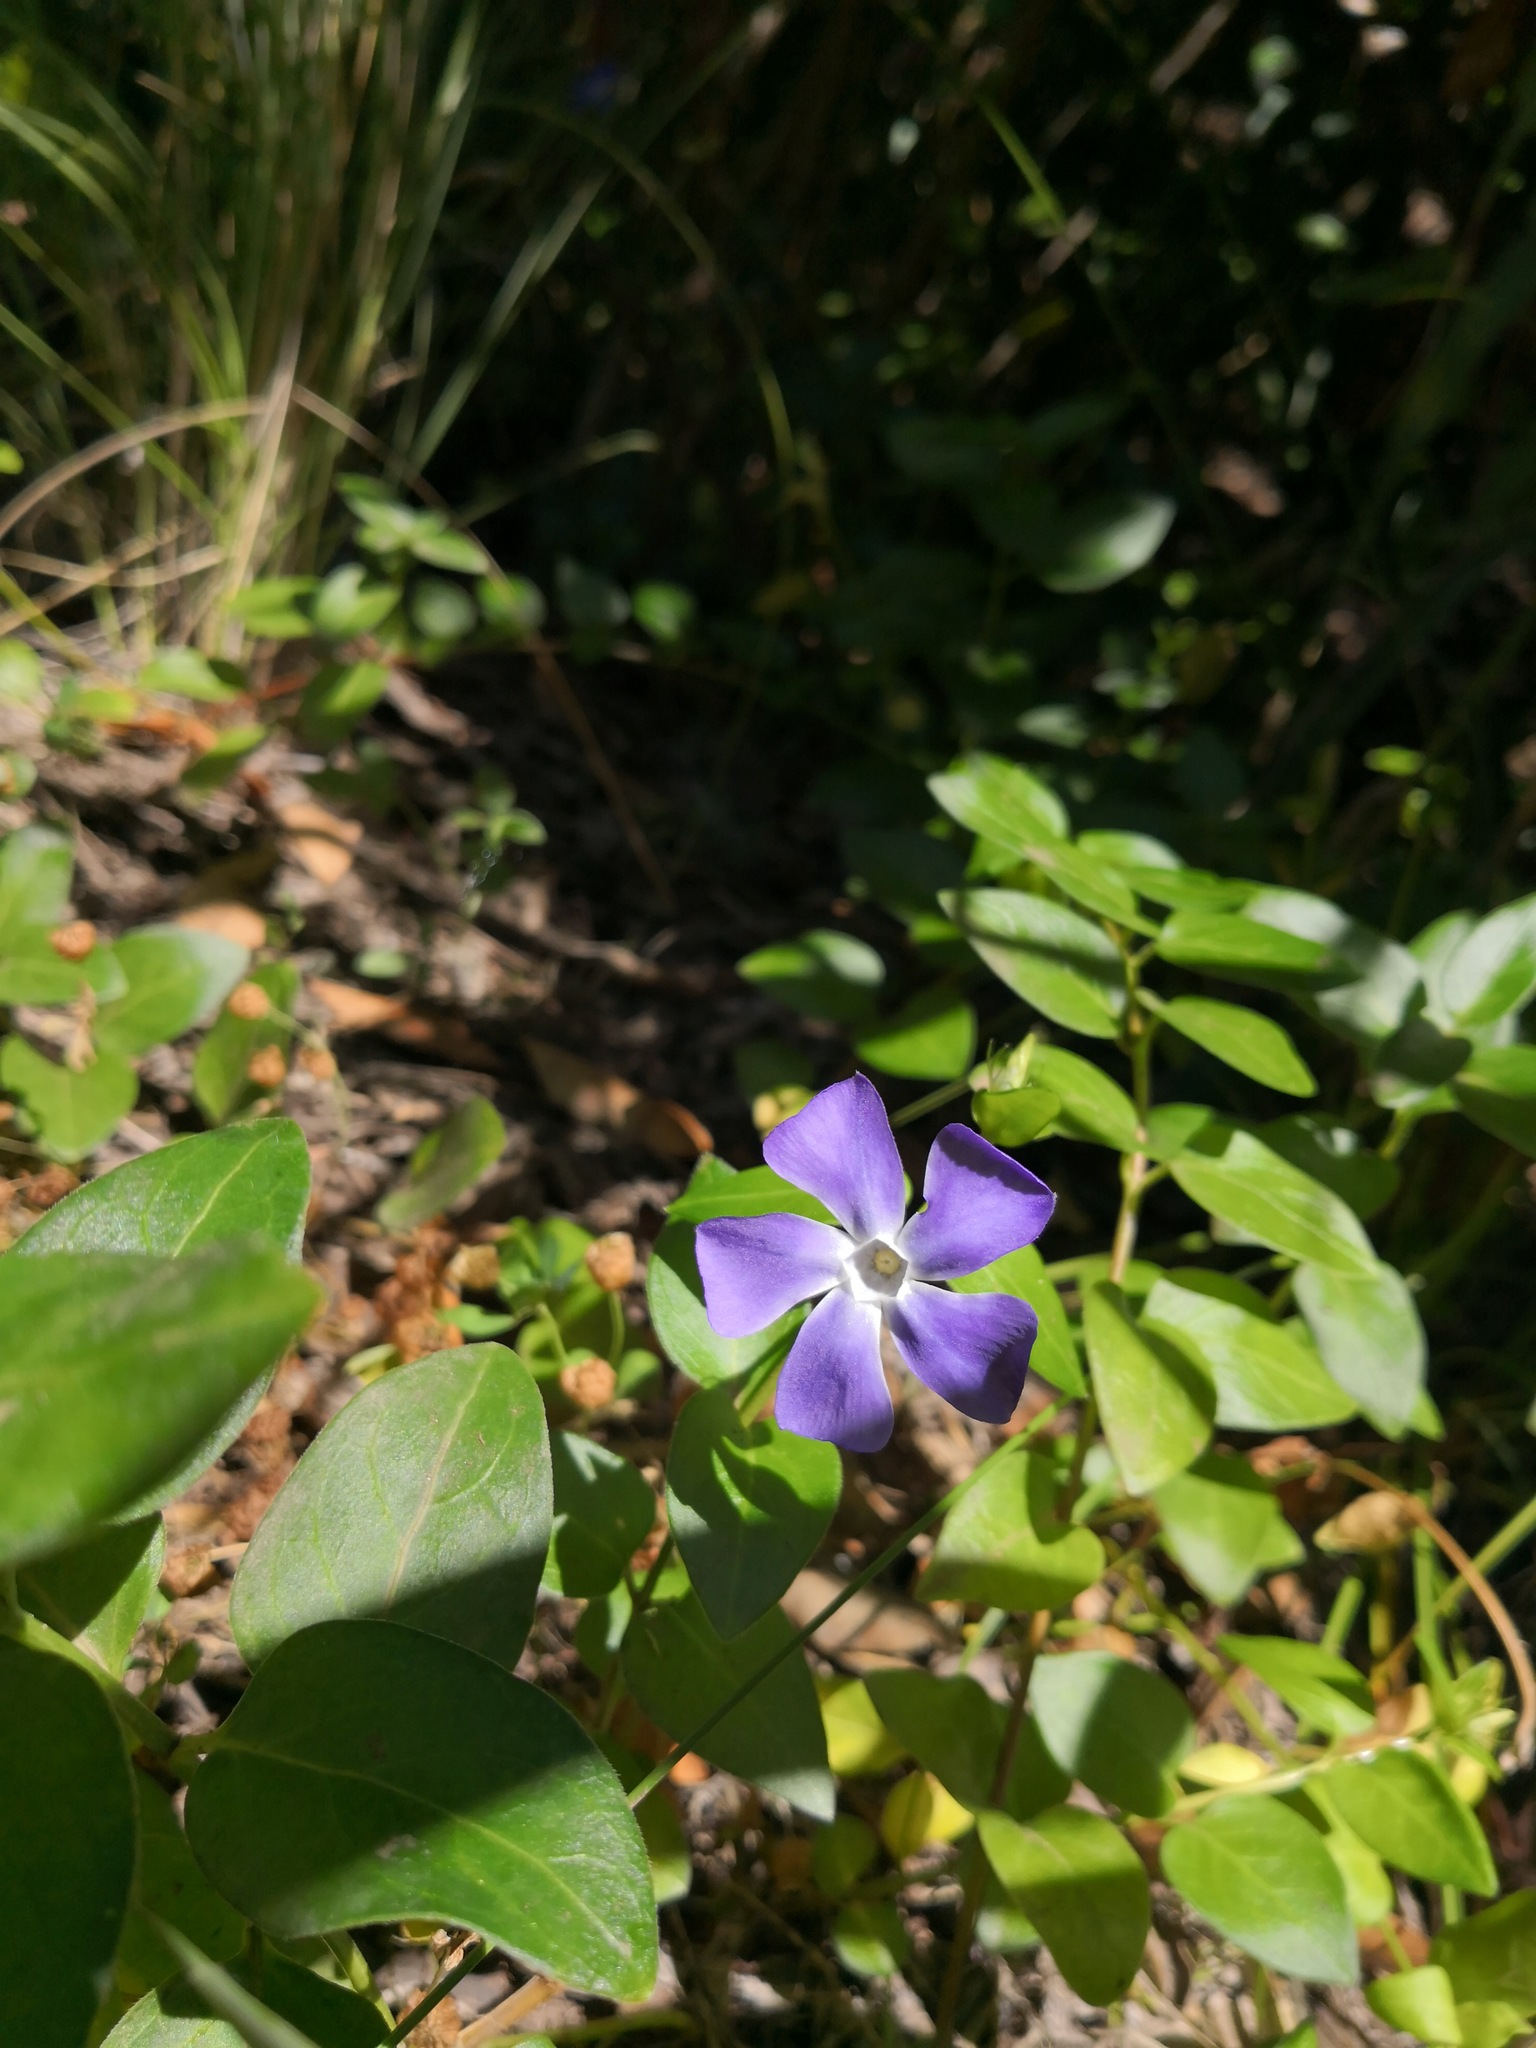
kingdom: Plantae
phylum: Tracheophyta
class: Magnoliopsida
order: Gentianales
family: Apocynaceae
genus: Vinca
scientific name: Vinca major
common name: Greater periwinkle
